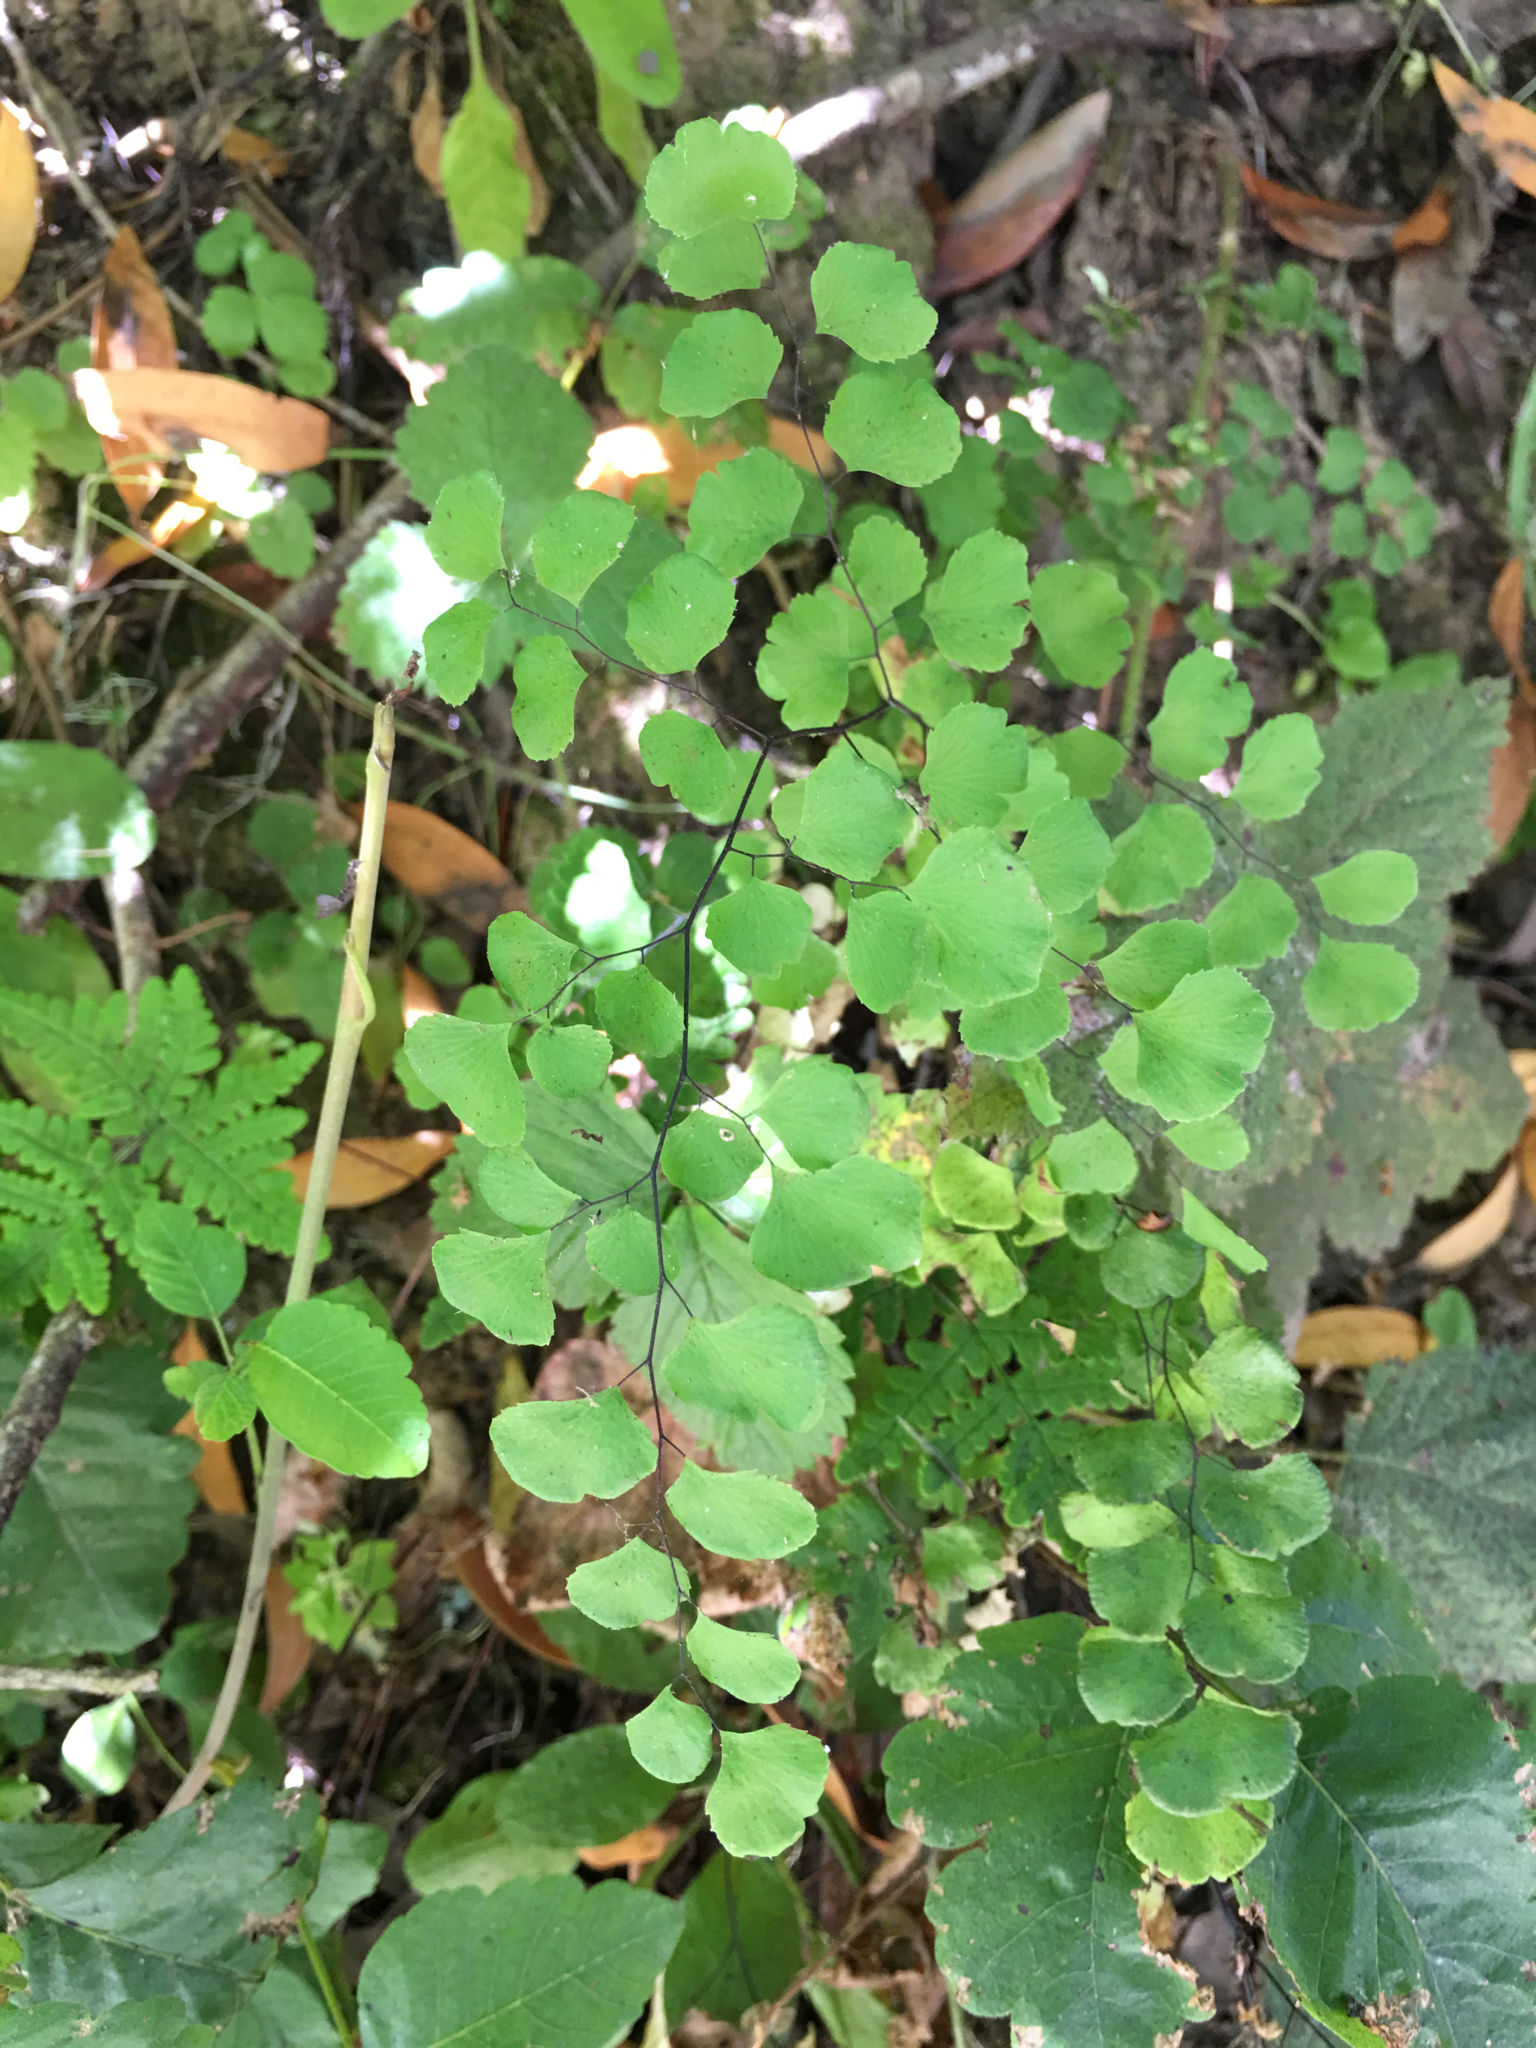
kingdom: Plantae
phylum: Tracheophyta
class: Polypodiopsida
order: Polypodiales
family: Pteridaceae
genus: Adiantum
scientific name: Adiantum jordanii
